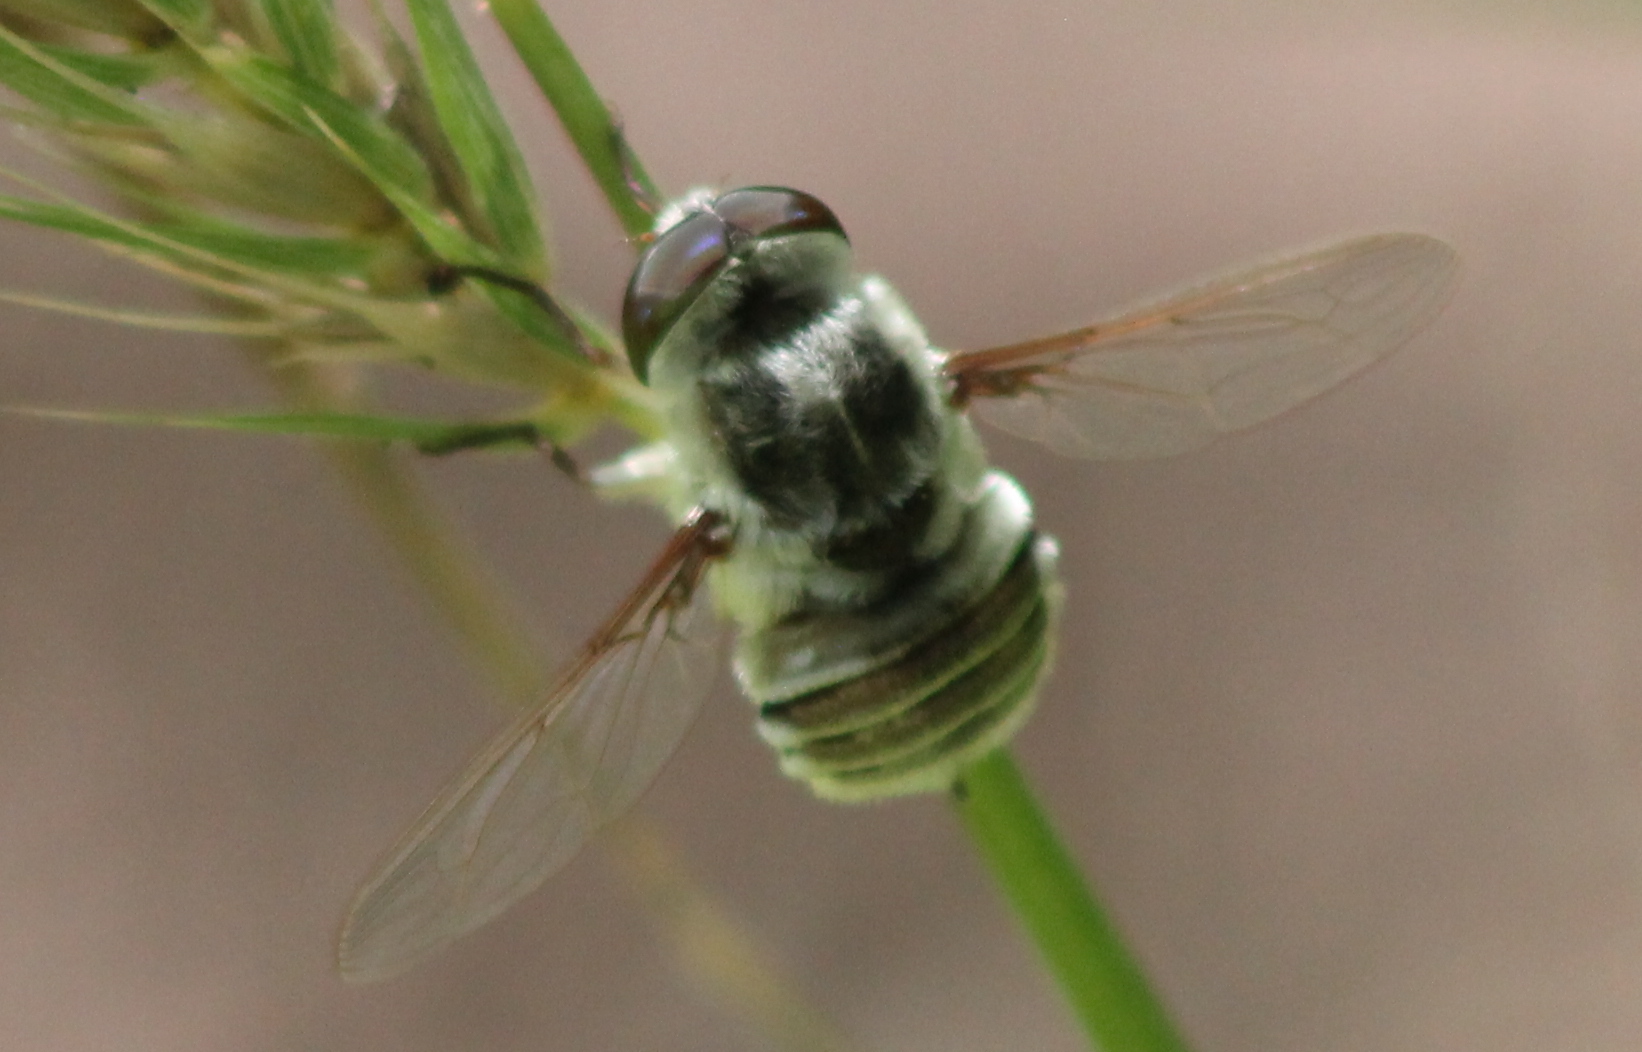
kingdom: Animalia
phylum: Arthropoda
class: Insecta
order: Diptera
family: Nemestrinidae
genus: Neorhynchocephalus
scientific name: Neorhynchocephalus volaticus
